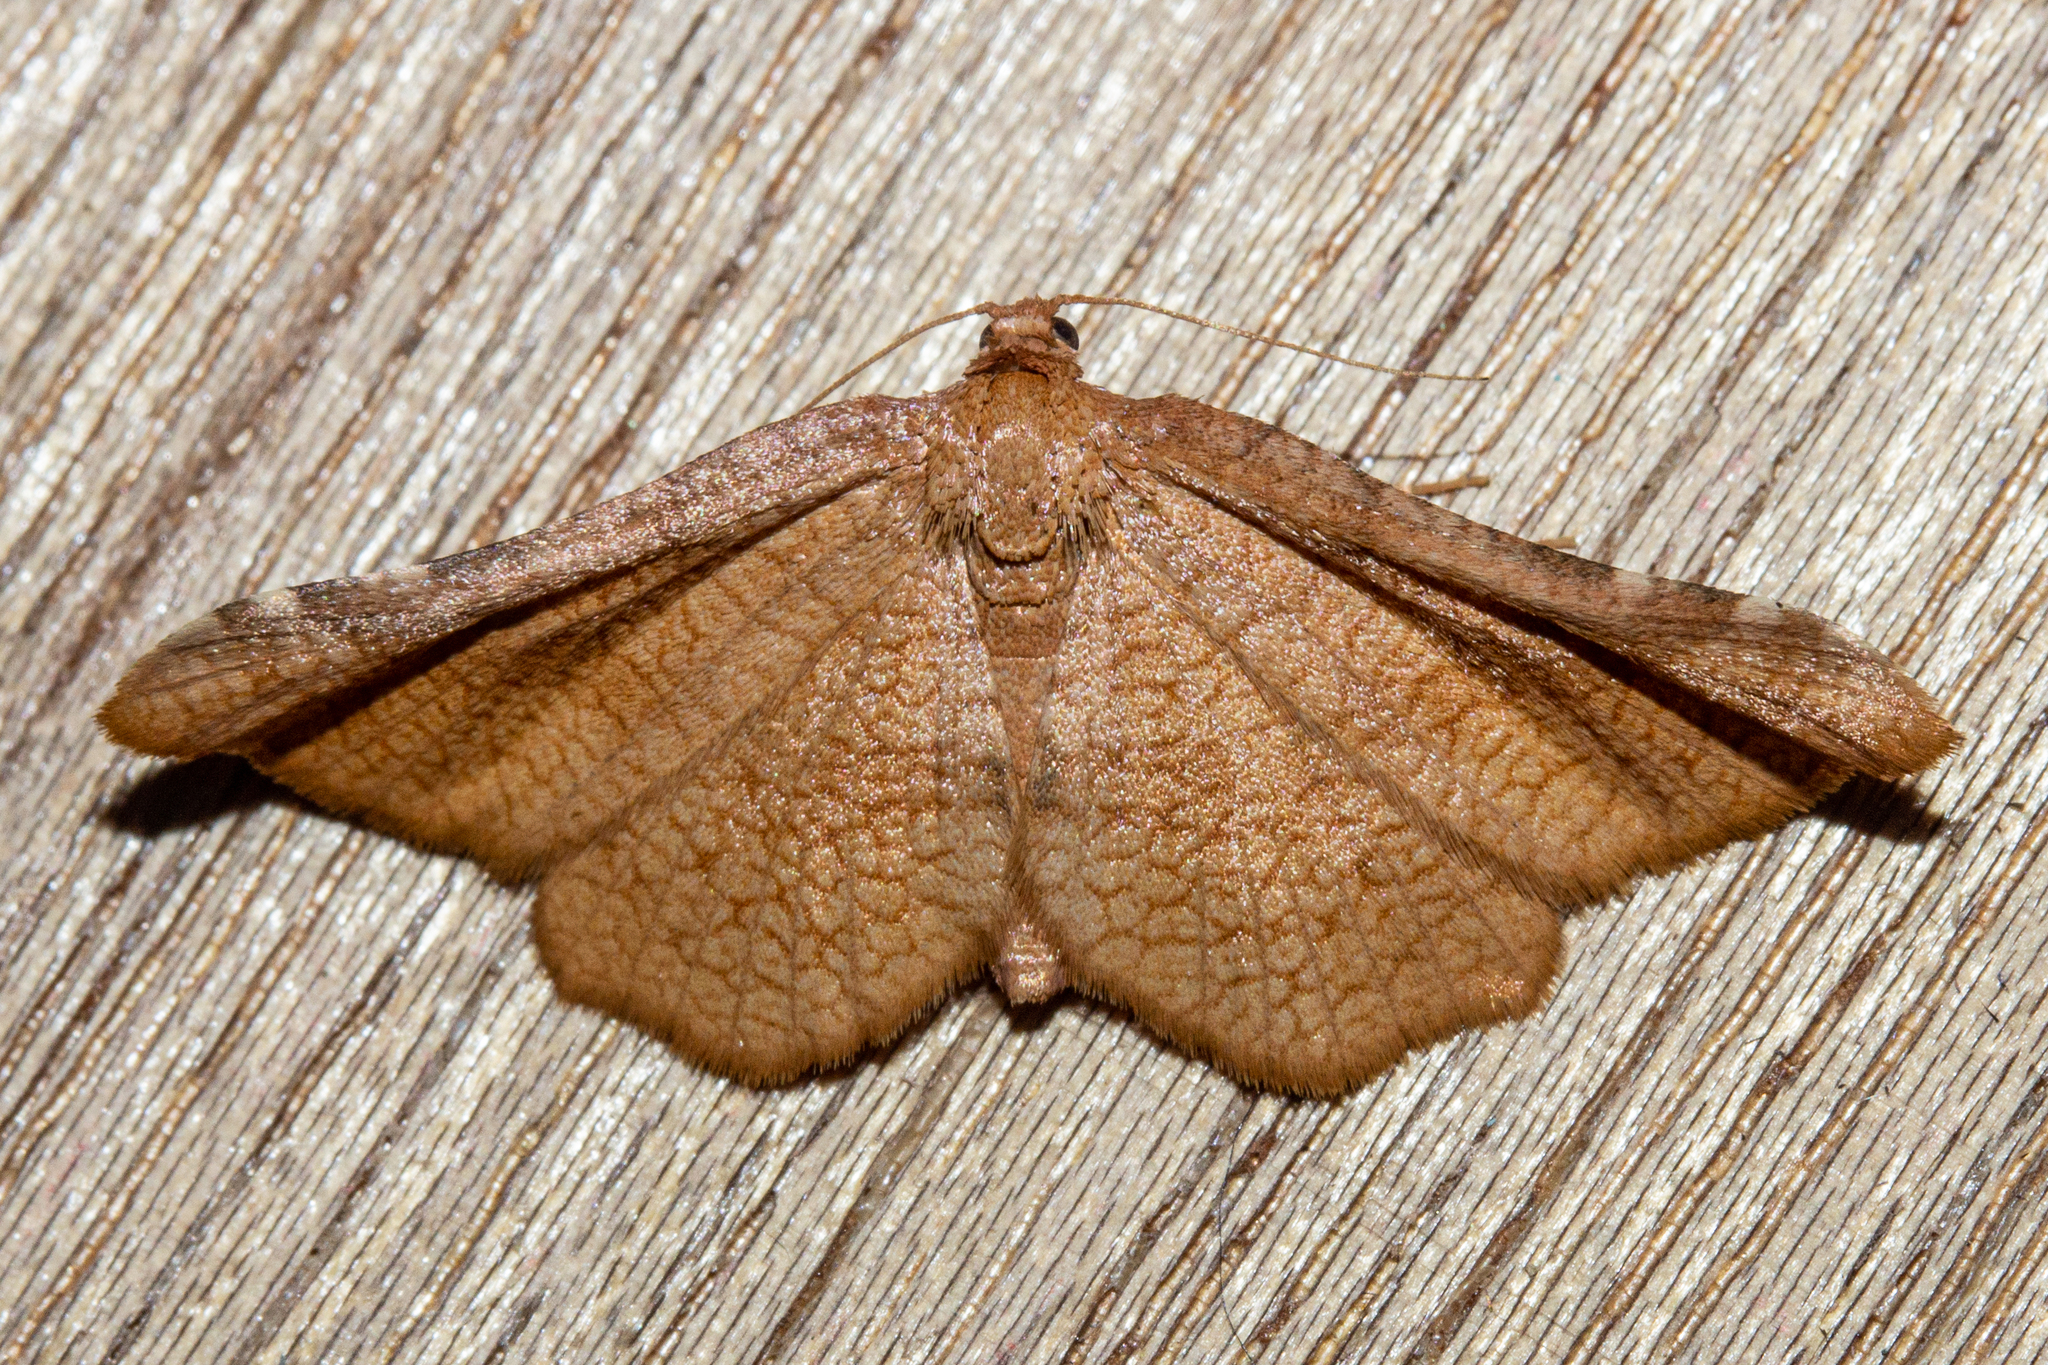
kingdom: Animalia
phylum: Arthropoda
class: Insecta
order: Lepidoptera
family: Thyrididae
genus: Morova
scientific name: Morova subfasciata
